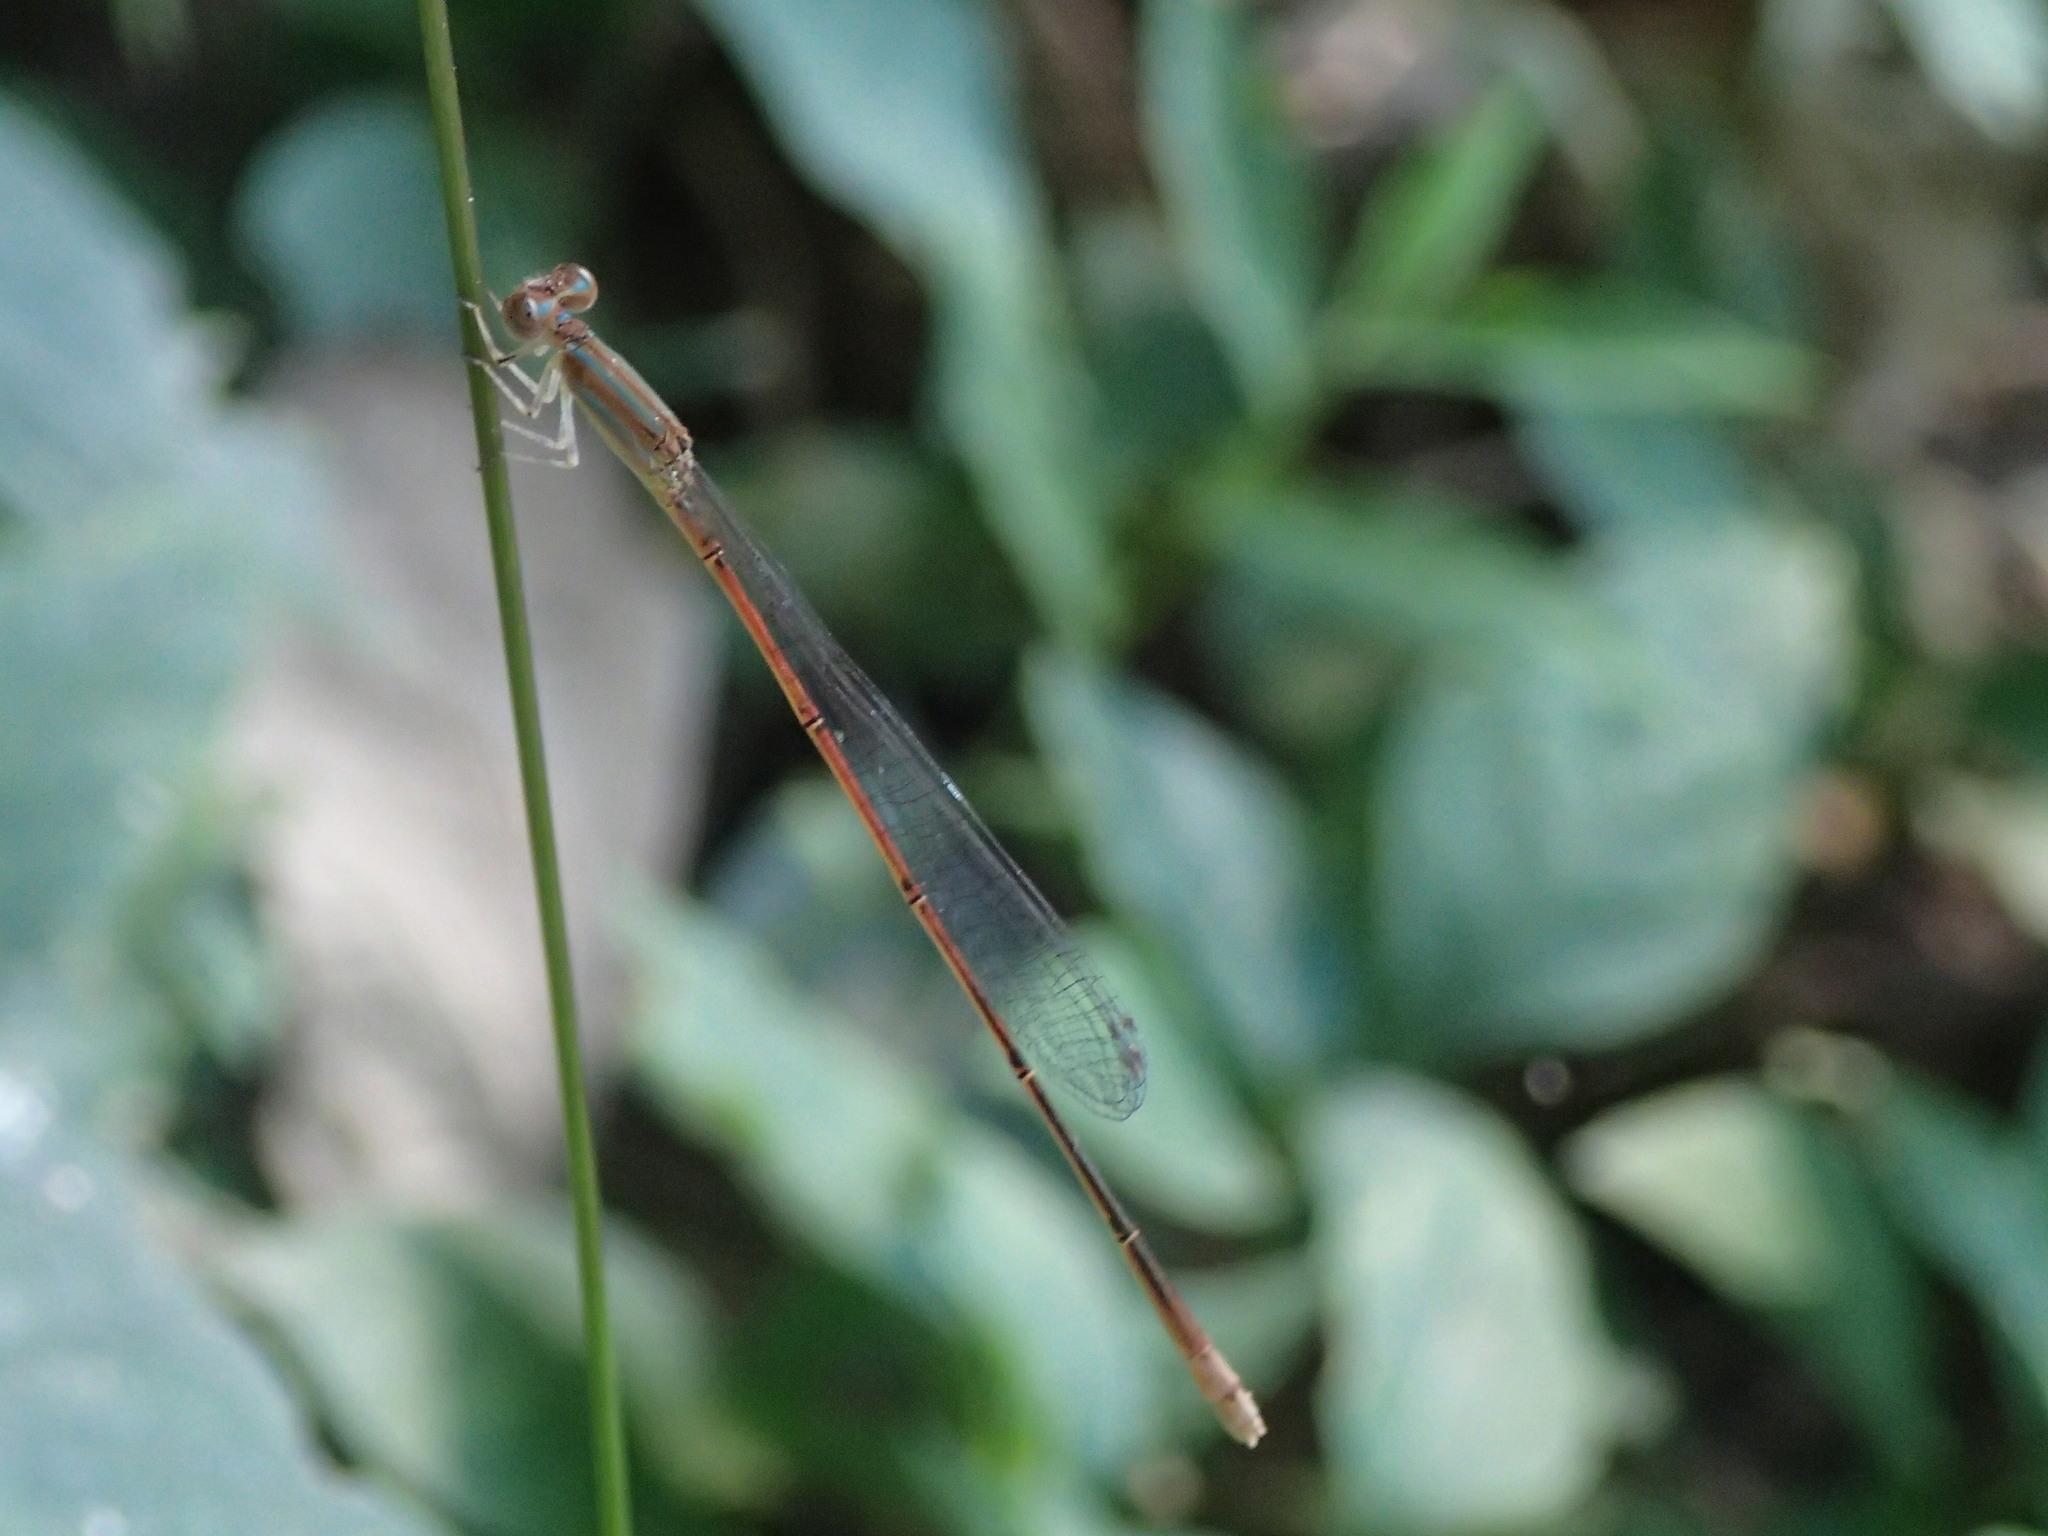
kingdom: Animalia
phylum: Arthropoda
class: Insecta
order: Odonata
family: Coenagrionidae
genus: Aciagrion
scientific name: Aciagrion pallidum
